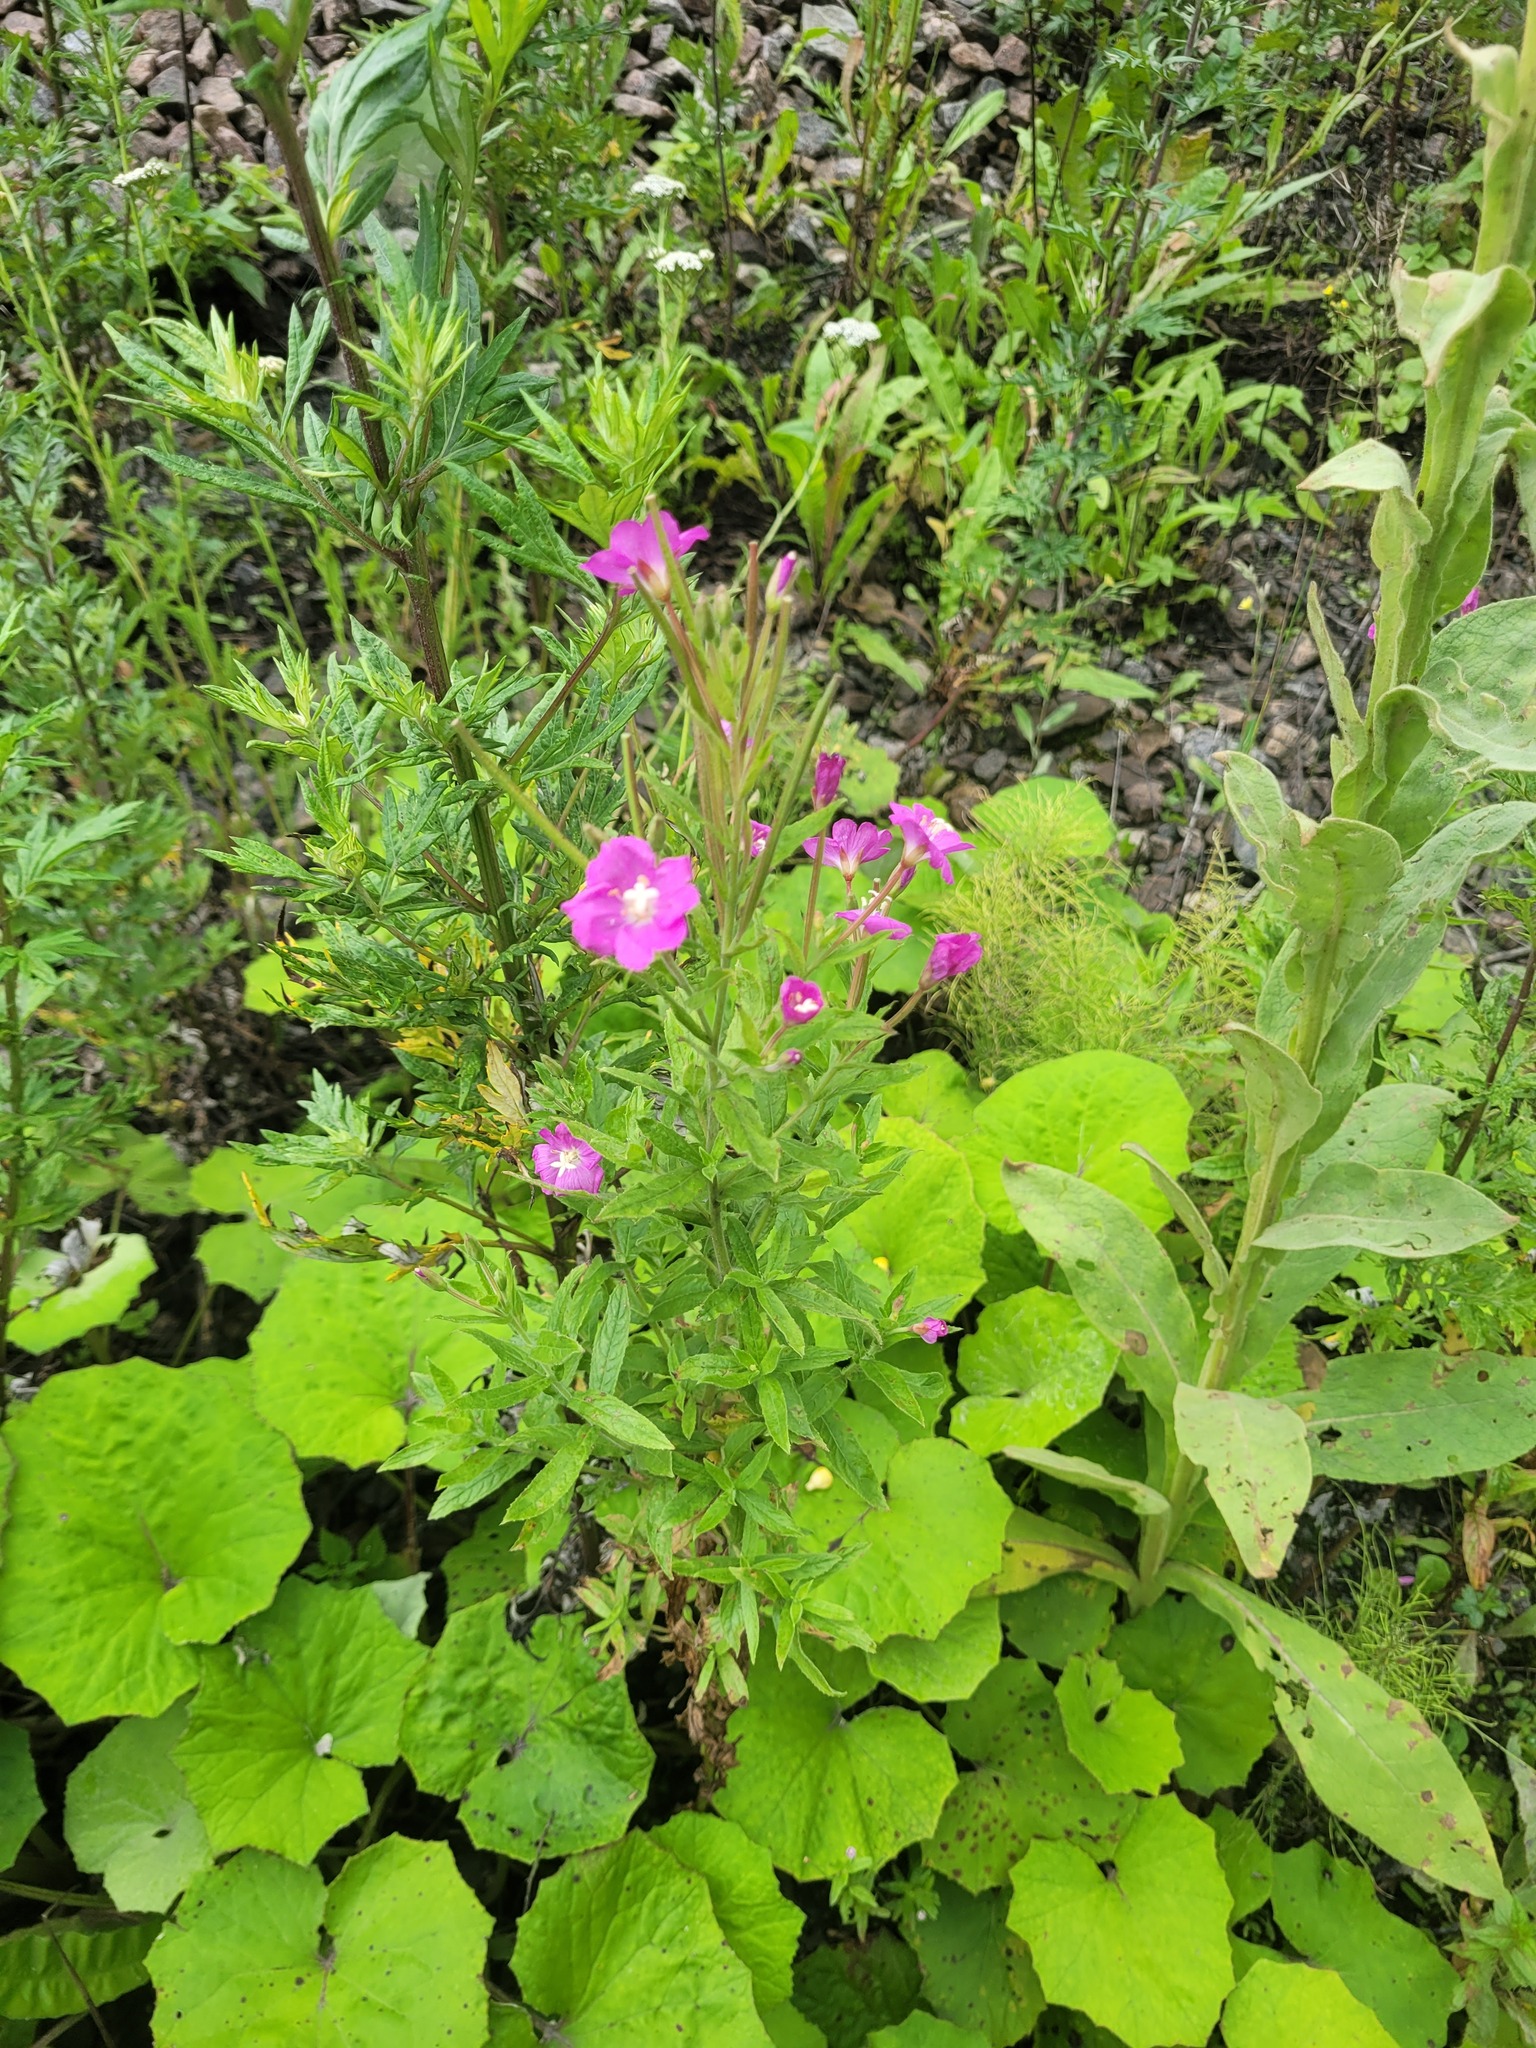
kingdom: Plantae
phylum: Tracheophyta
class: Magnoliopsida
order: Myrtales
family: Onagraceae
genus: Epilobium
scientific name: Epilobium hirsutum
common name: Great willowherb
